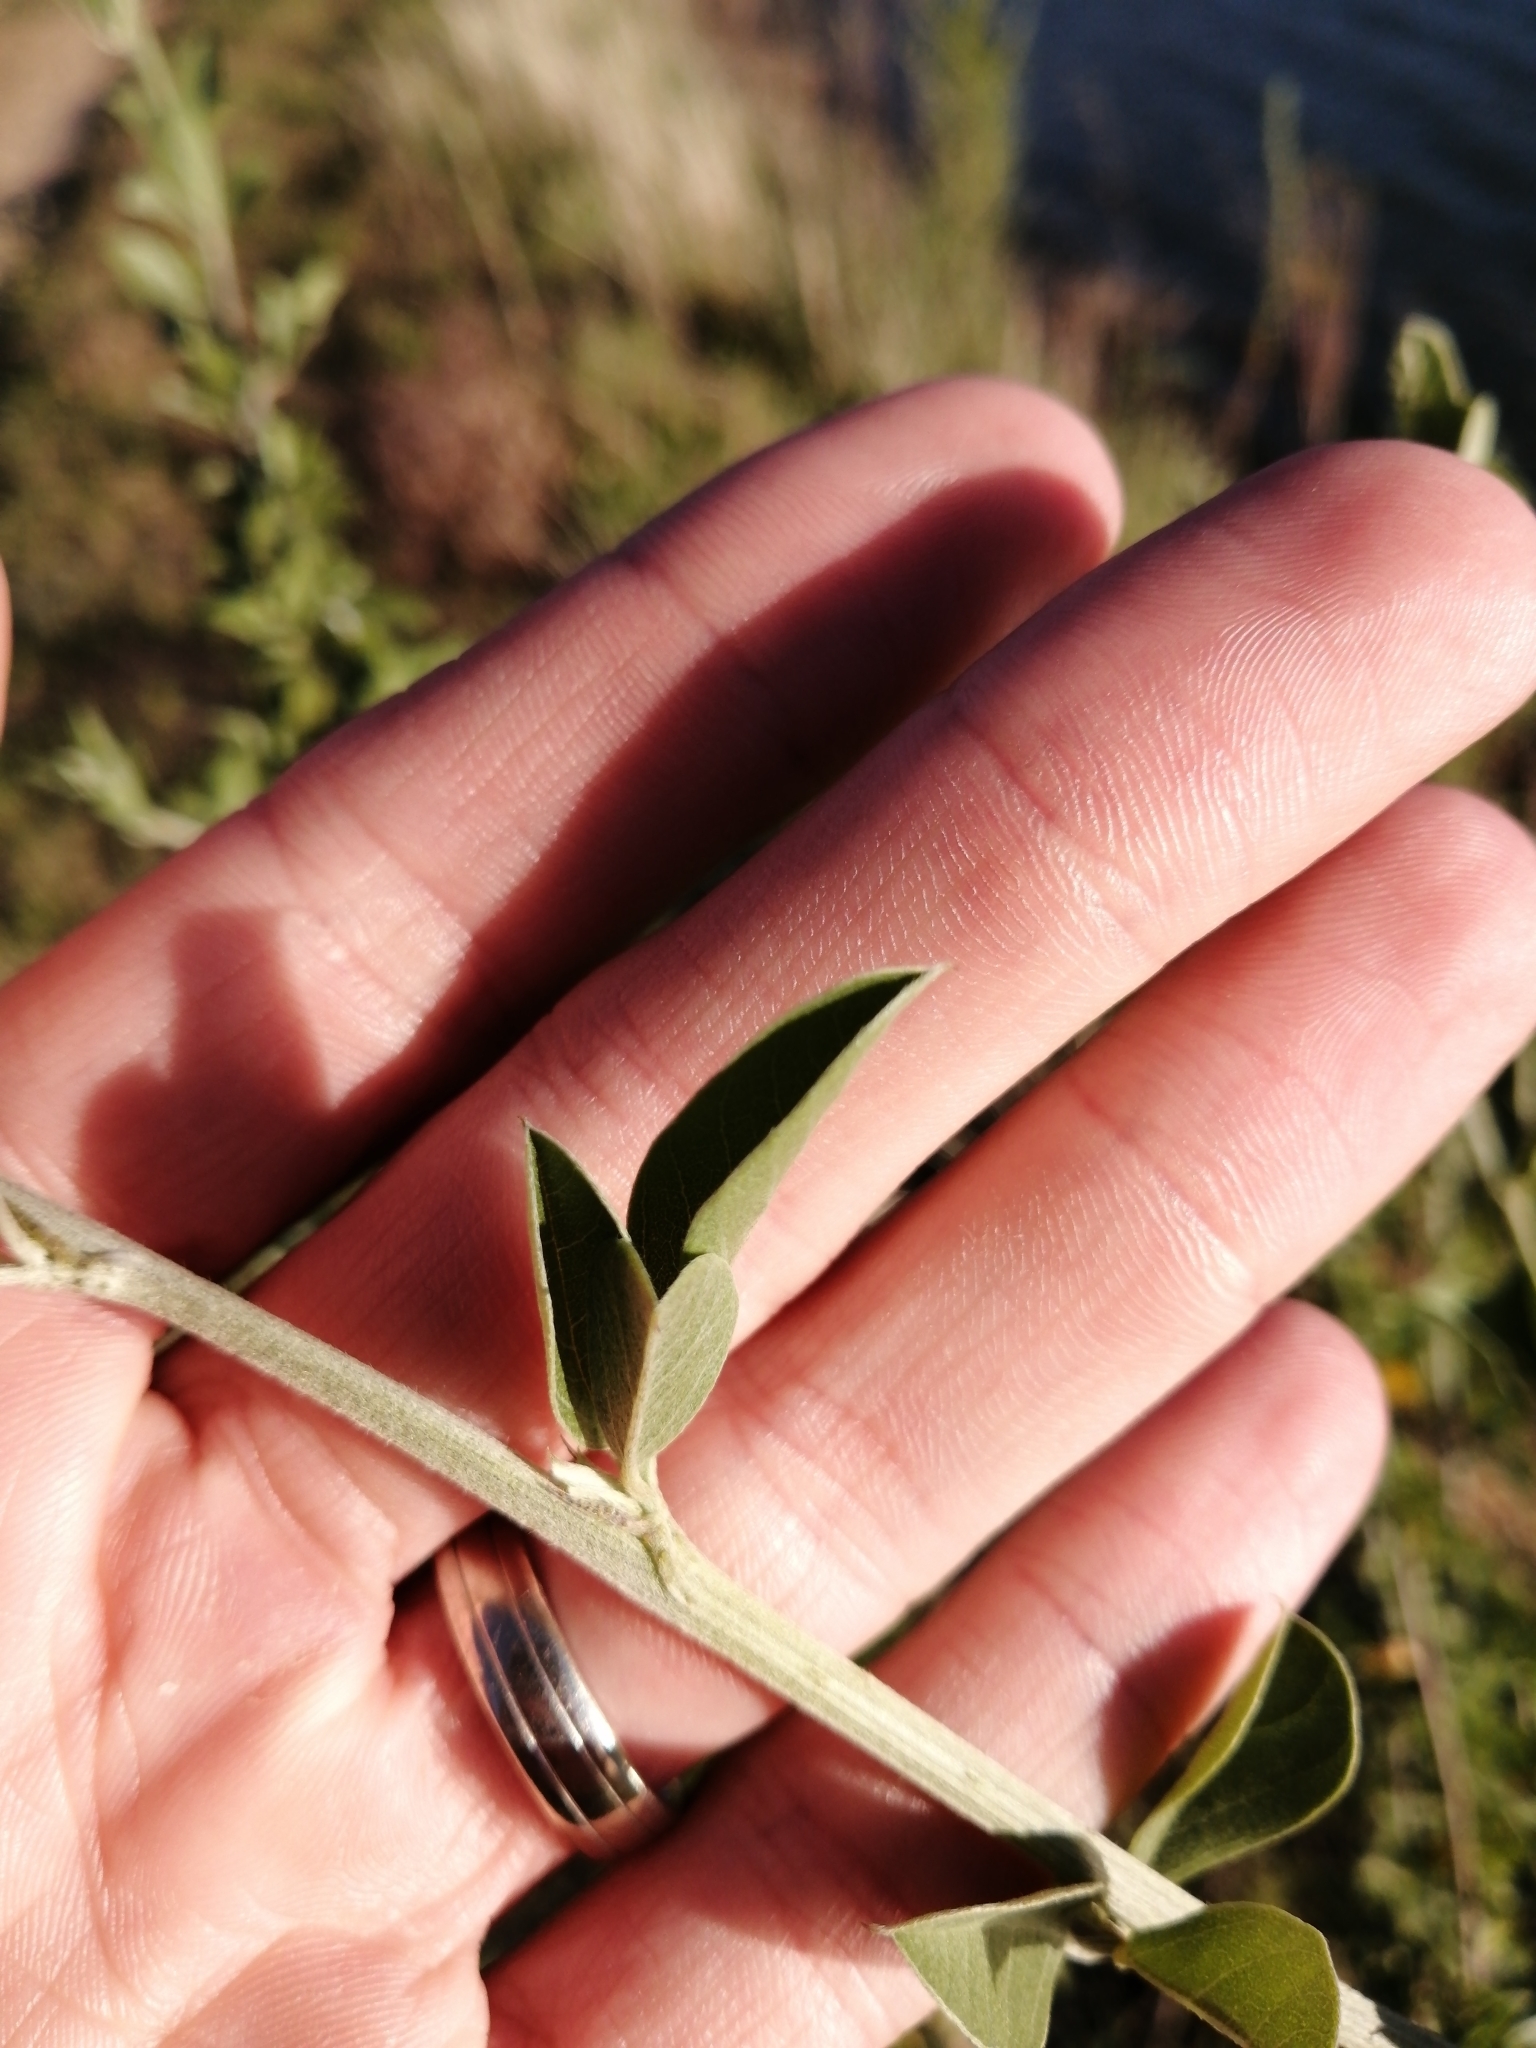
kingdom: Plantae
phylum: Tracheophyta
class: Magnoliopsida
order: Fabales
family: Fabaceae
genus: Psoralea
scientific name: Psoralea striata
